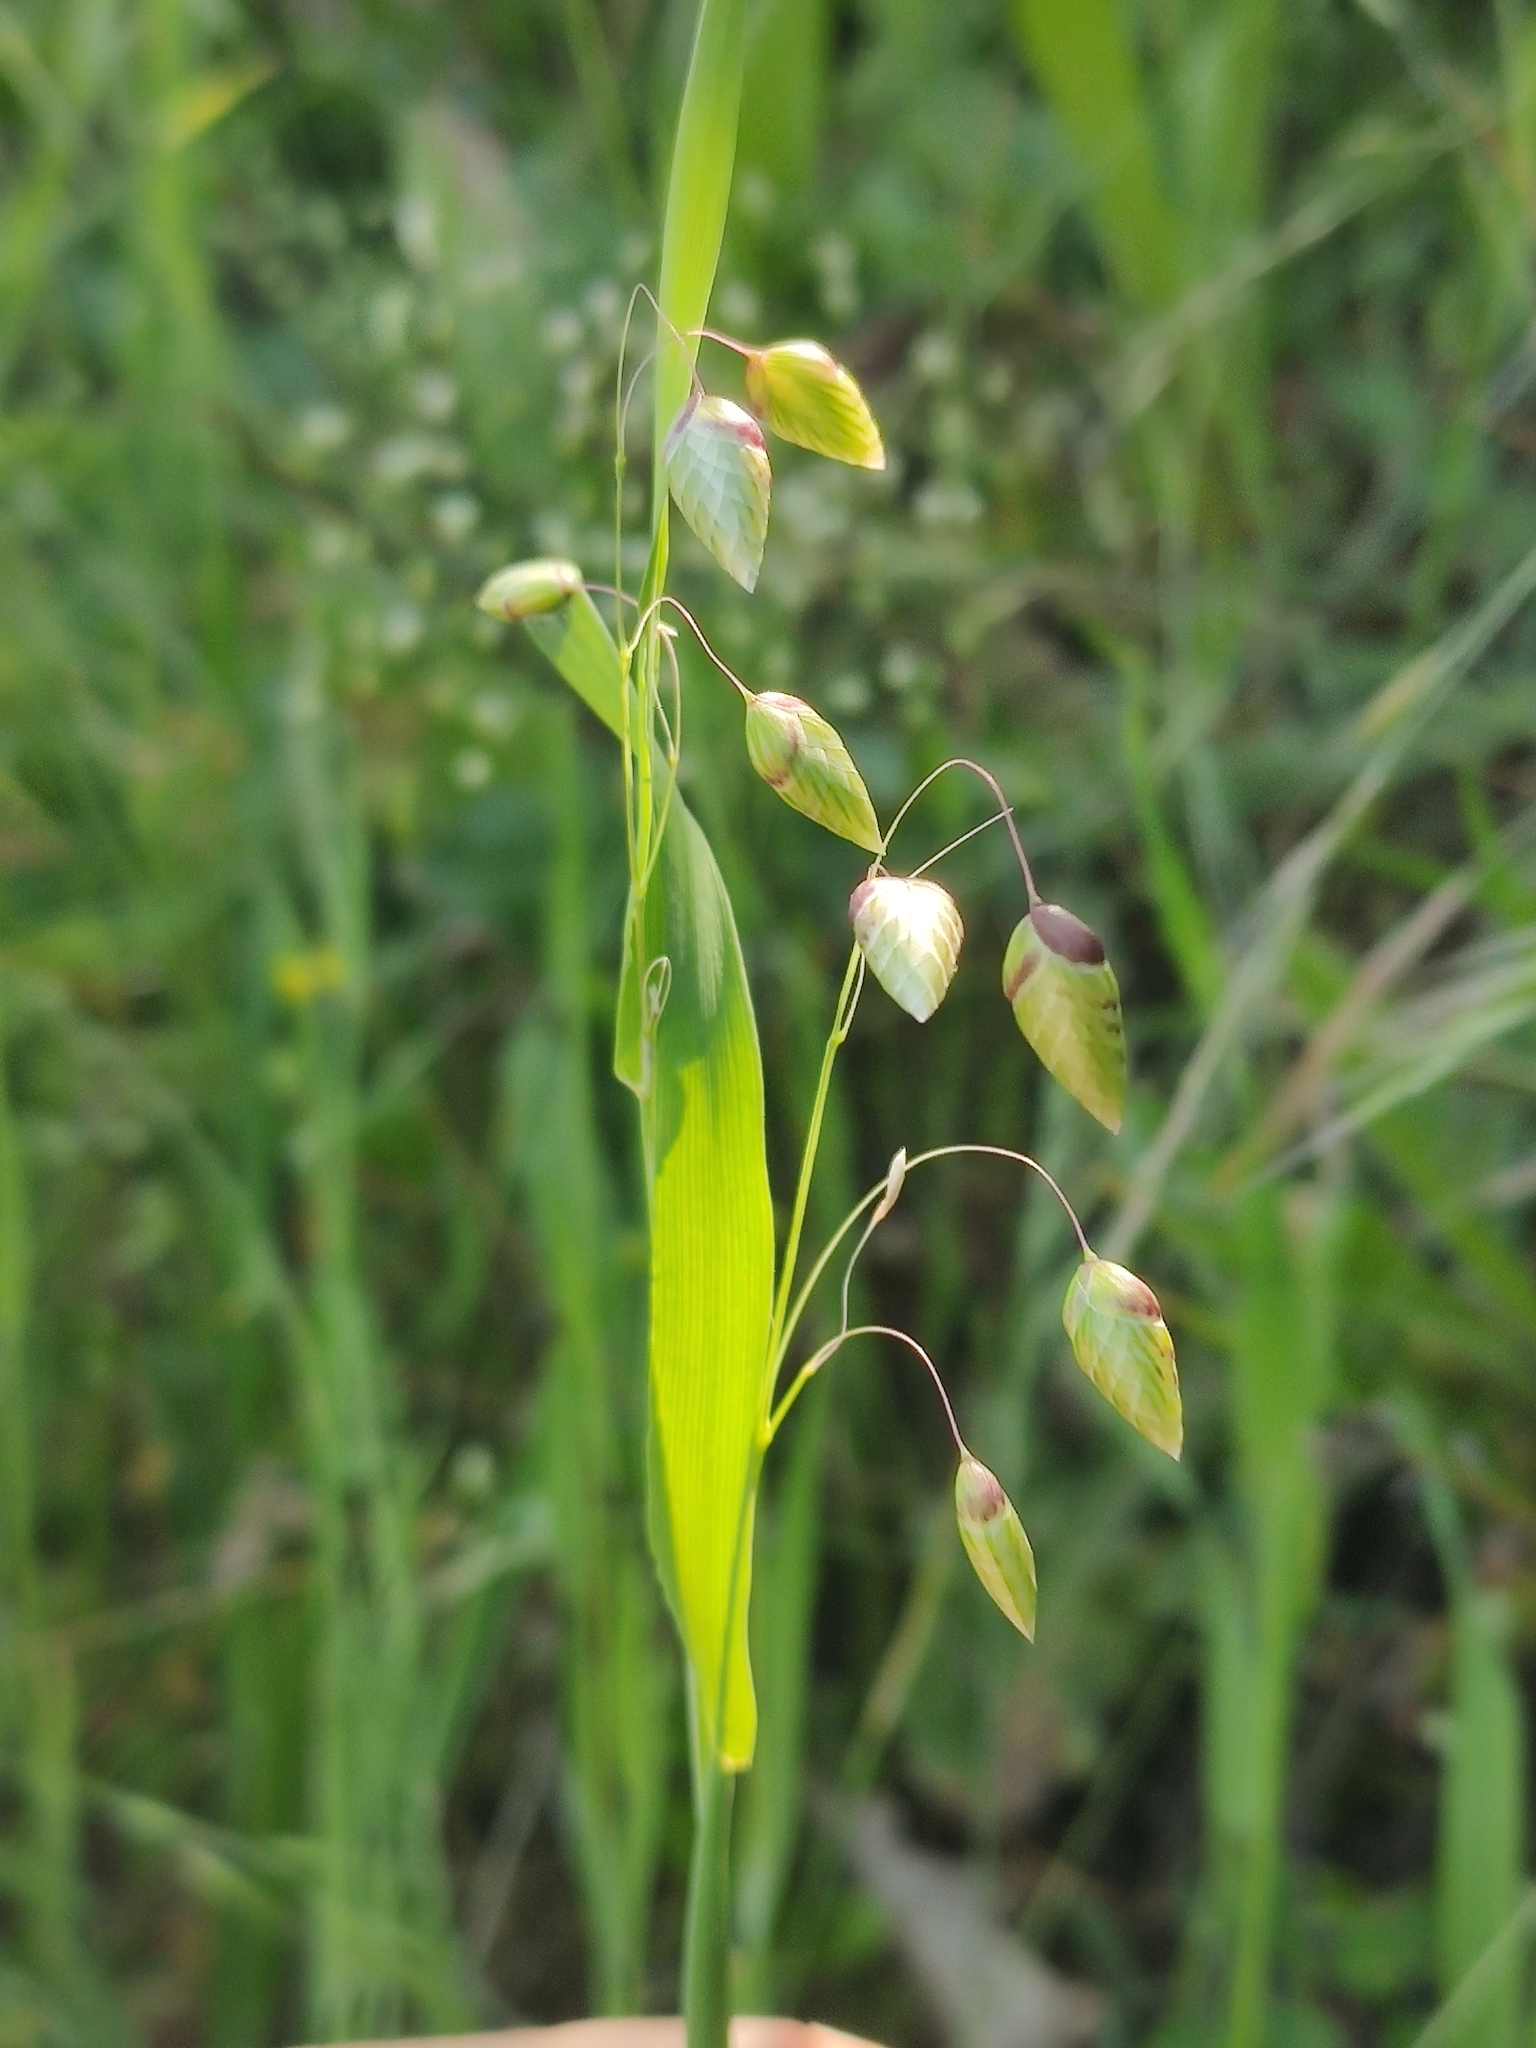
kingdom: Plantae
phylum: Tracheophyta
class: Liliopsida
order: Poales
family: Poaceae
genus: Briza
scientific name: Briza maxima
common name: Big quakinggrass
